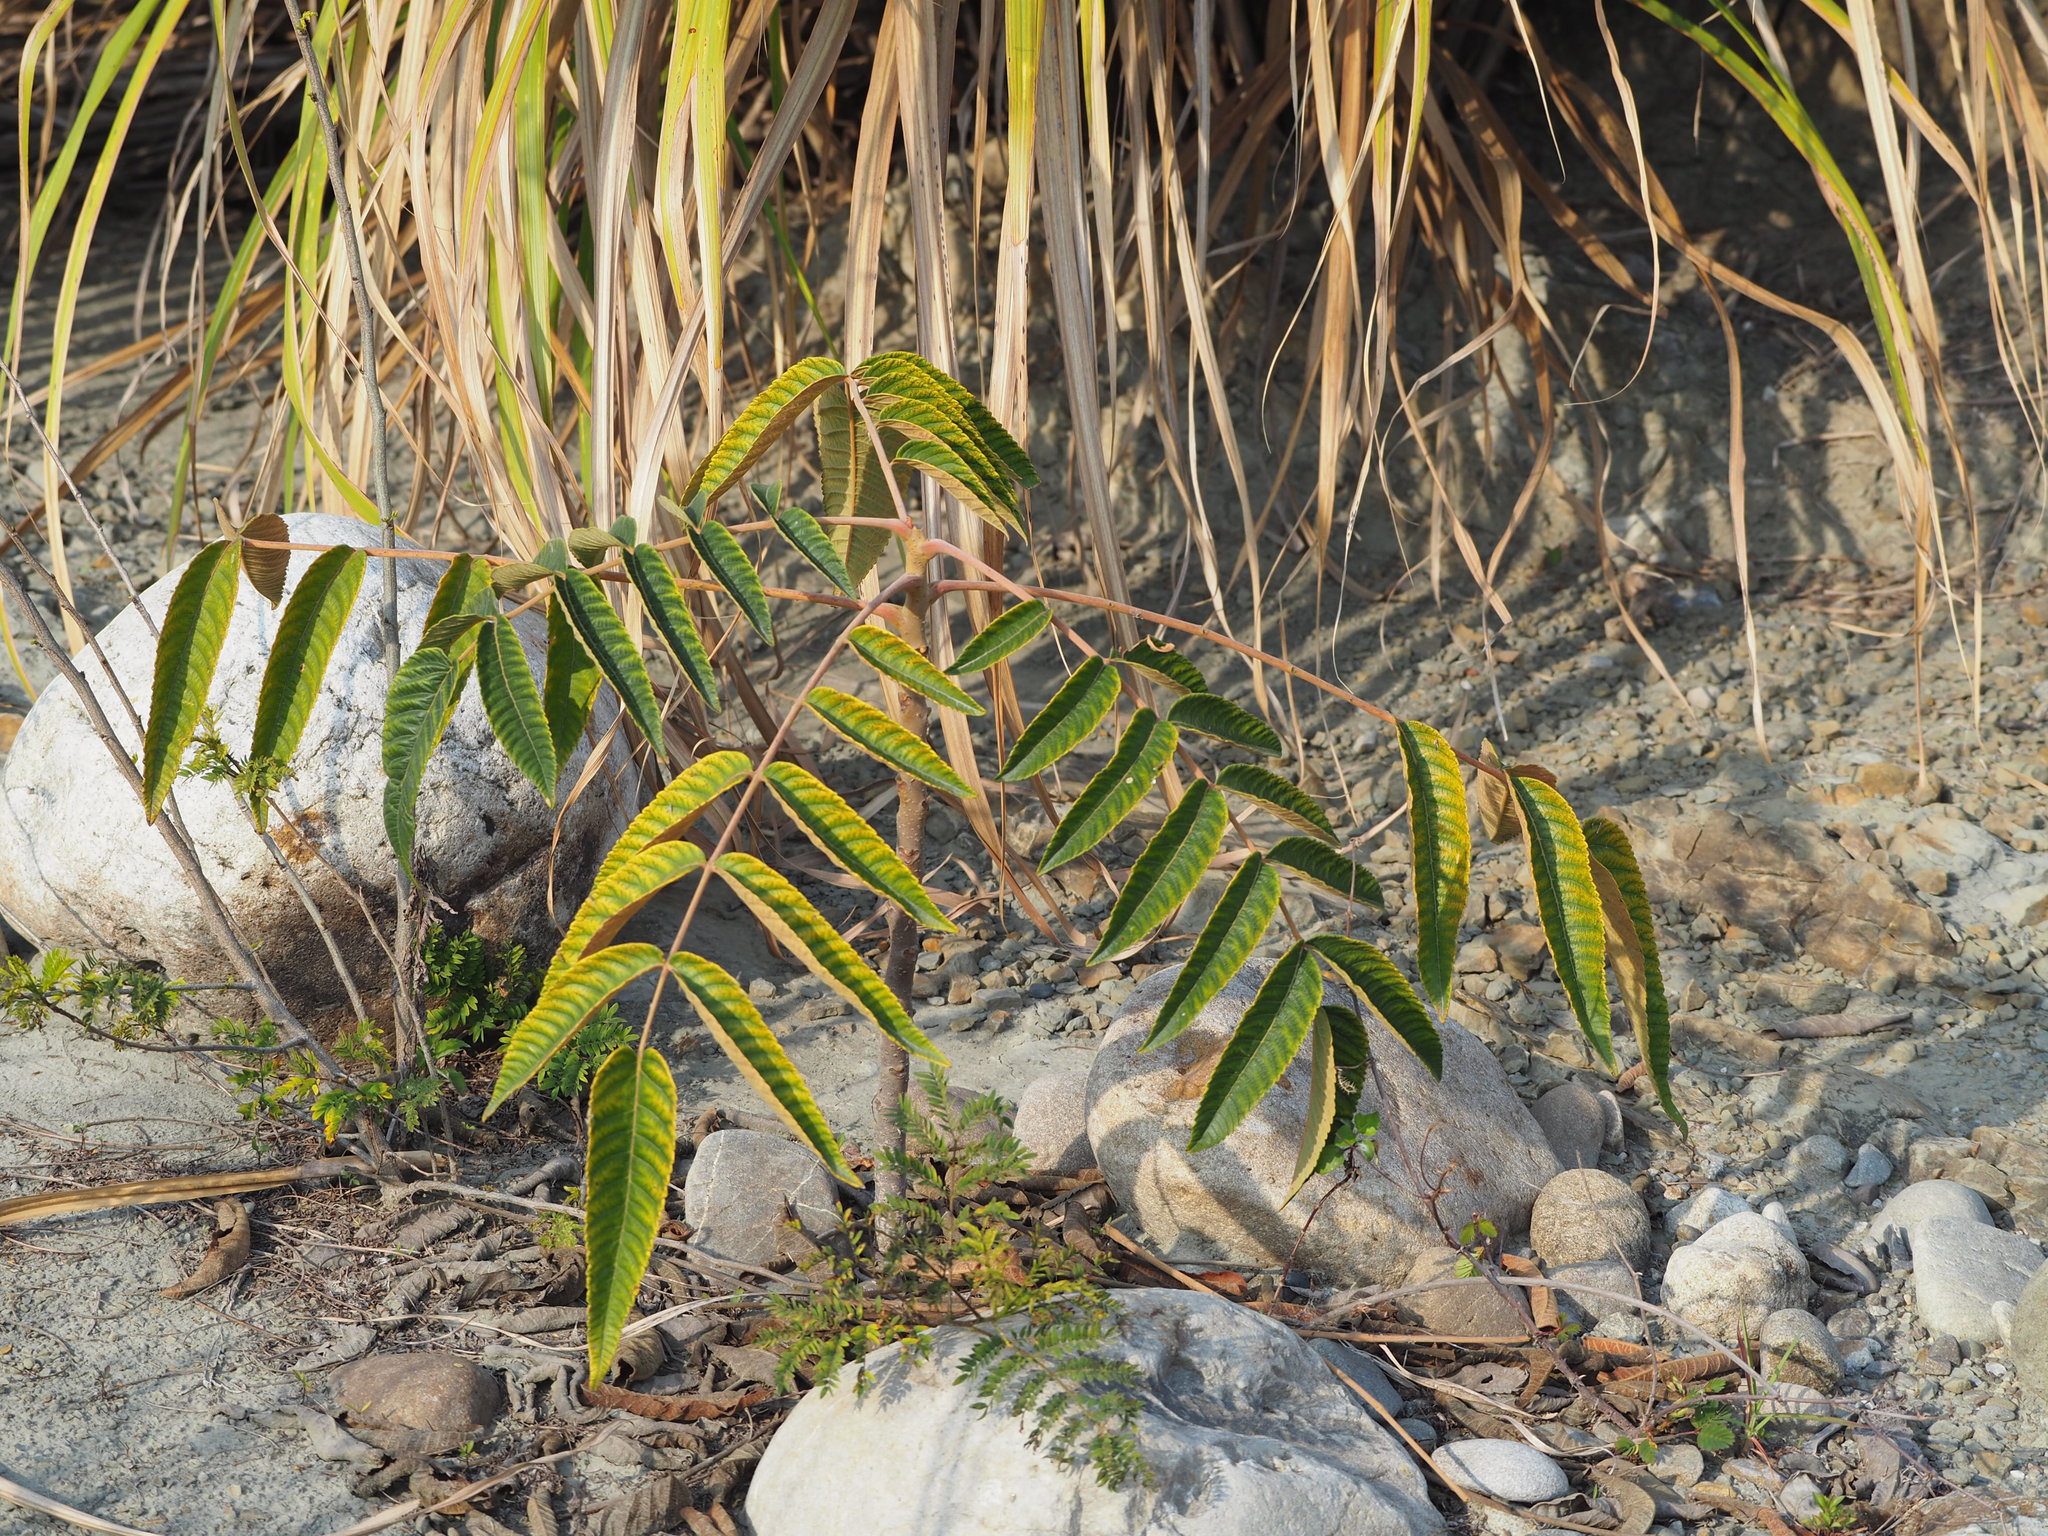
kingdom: Plantae
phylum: Tracheophyta
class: Magnoliopsida
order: Sapindales
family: Anacardiaceae
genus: Rhus
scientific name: Rhus chinensis
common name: Chinese gall
